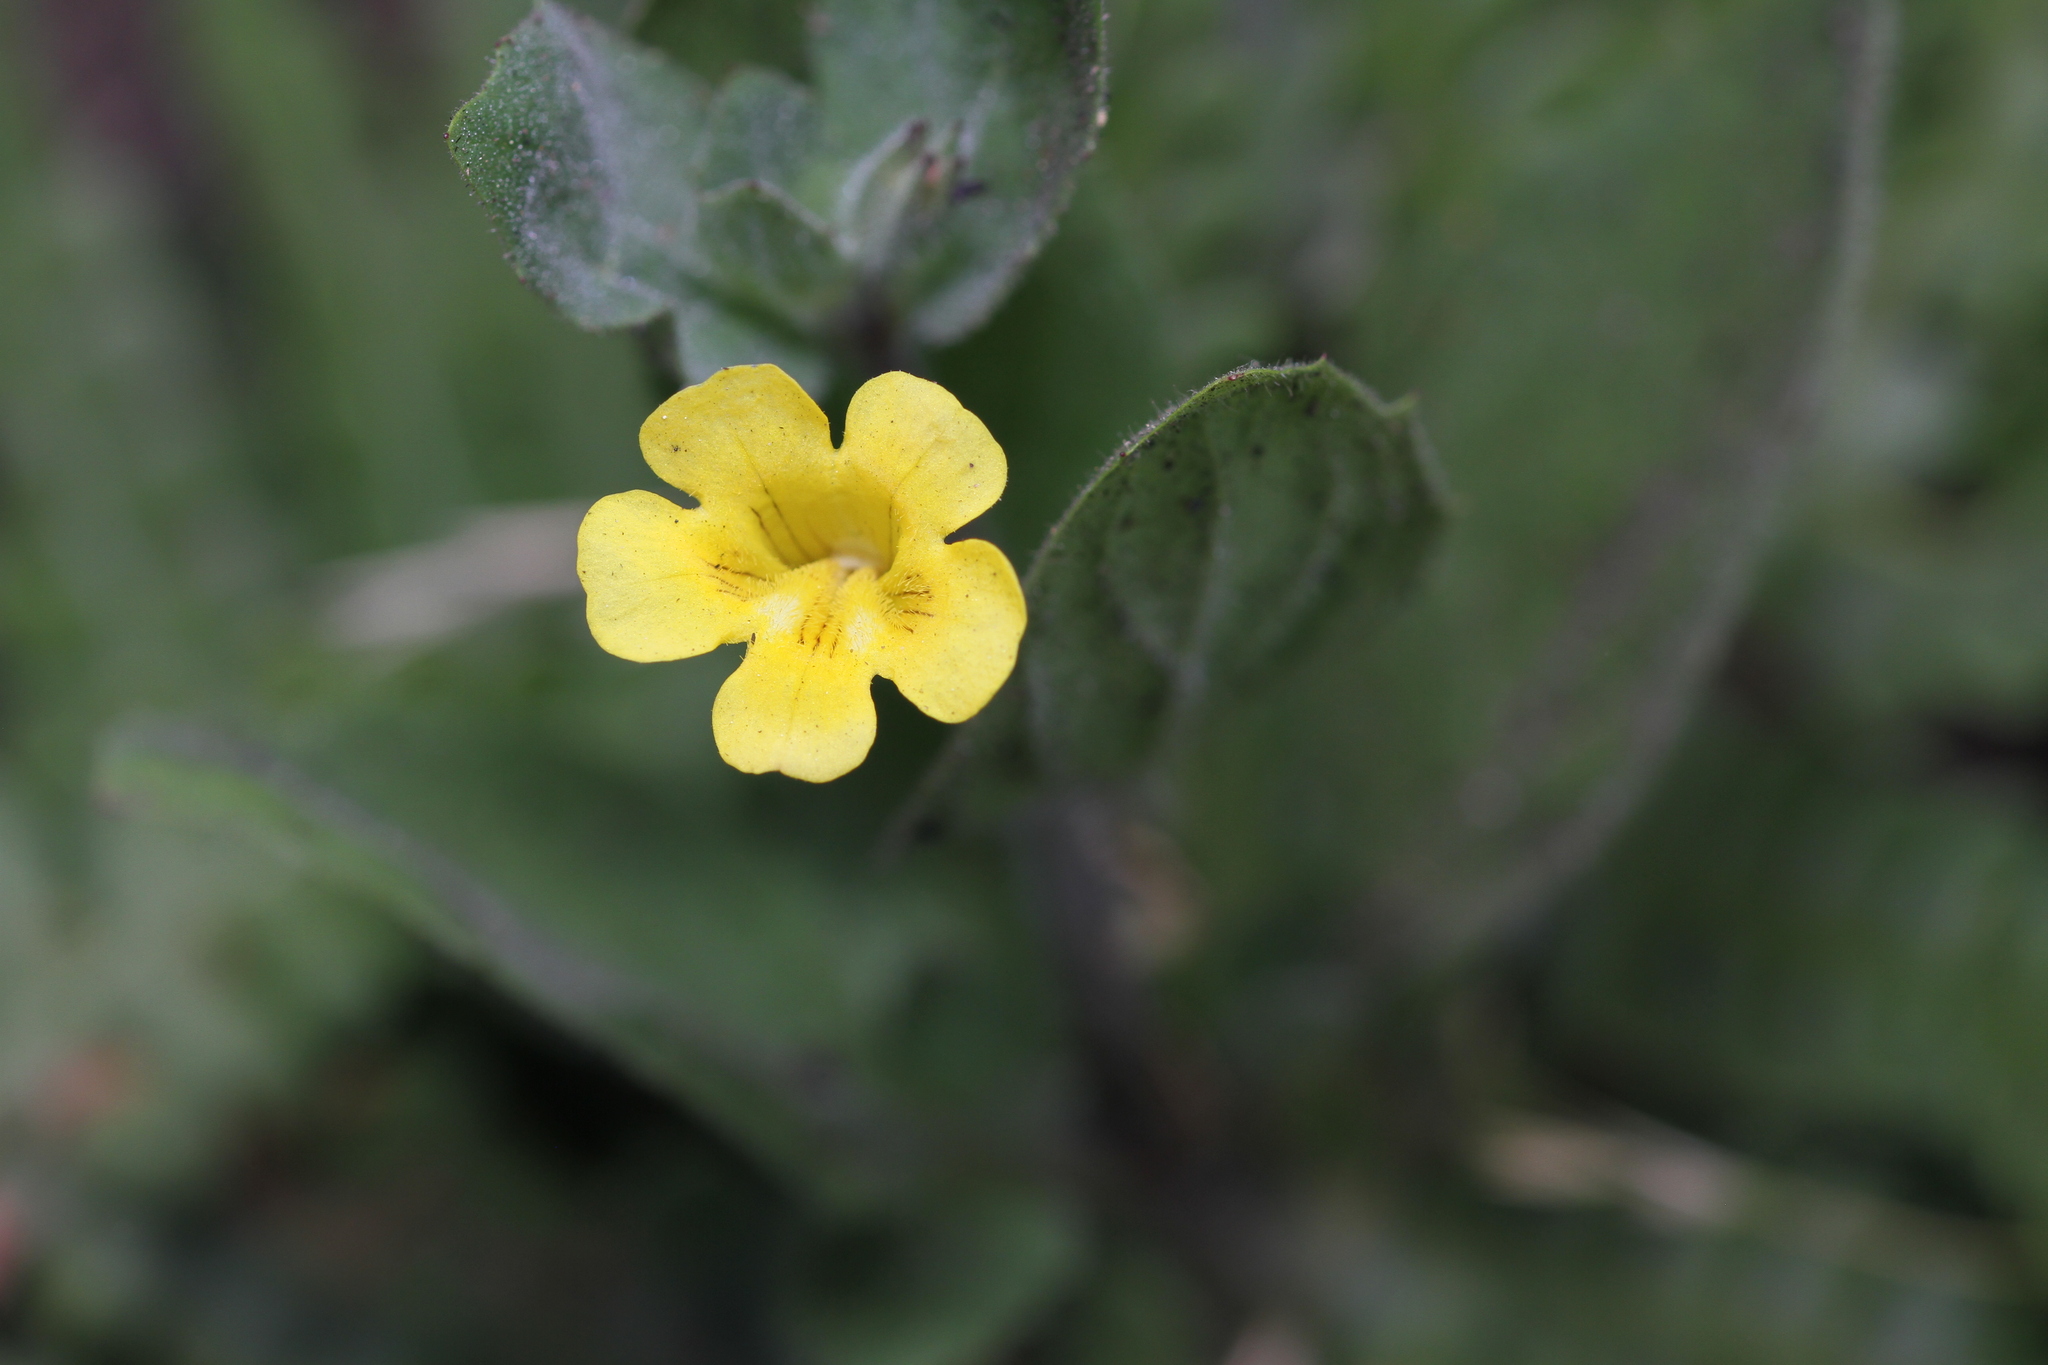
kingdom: Plantae
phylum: Tracheophyta
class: Magnoliopsida
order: Lamiales
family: Phrymaceae
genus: Erythranthe
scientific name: Erythranthe moschata
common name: Muskflower
